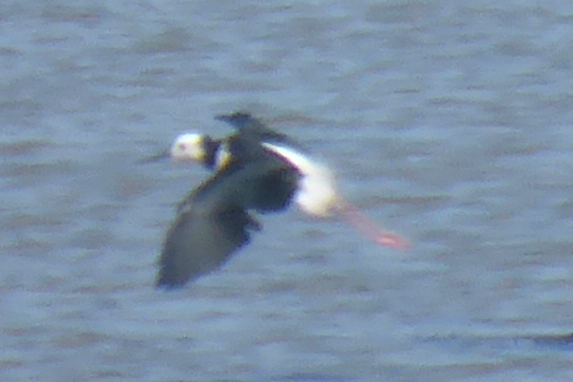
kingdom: Animalia
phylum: Chordata
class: Aves
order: Charadriiformes
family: Recurvirostridae
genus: Himantopus
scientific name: Himantopus leucocephalus
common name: White-headed stilt
